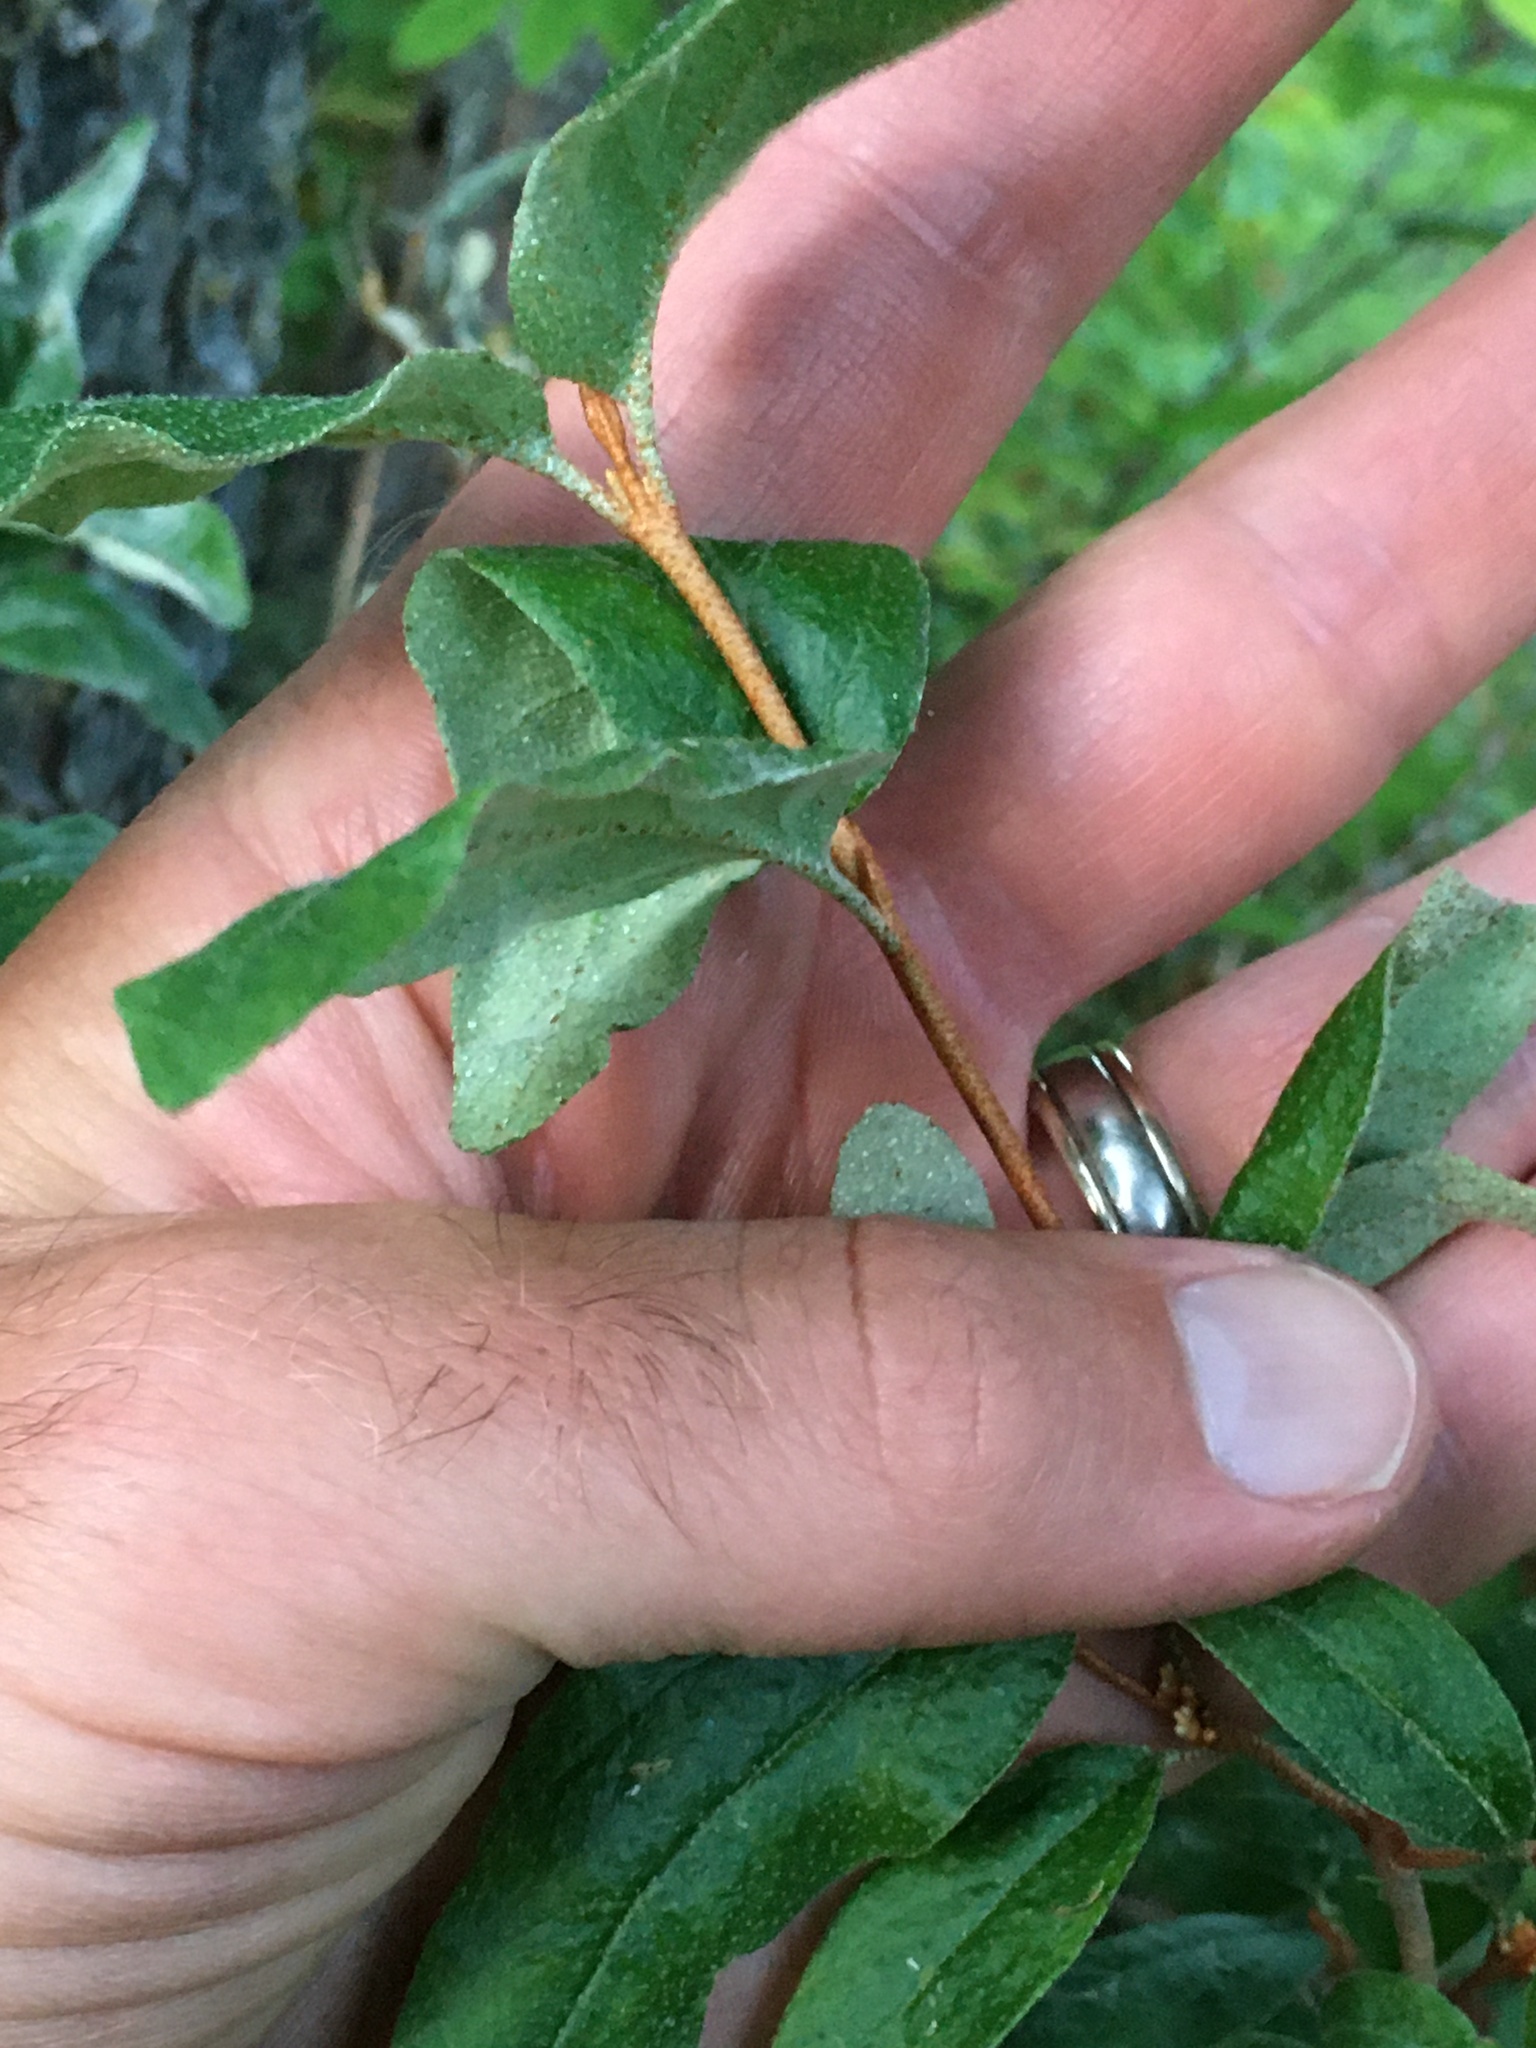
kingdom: Plantae
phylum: Tracheophyta
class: Magnoliopsida
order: Rosales
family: Elaeagnaceae
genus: Shepherdia
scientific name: Shepherdia canadensis
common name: Soapberry
